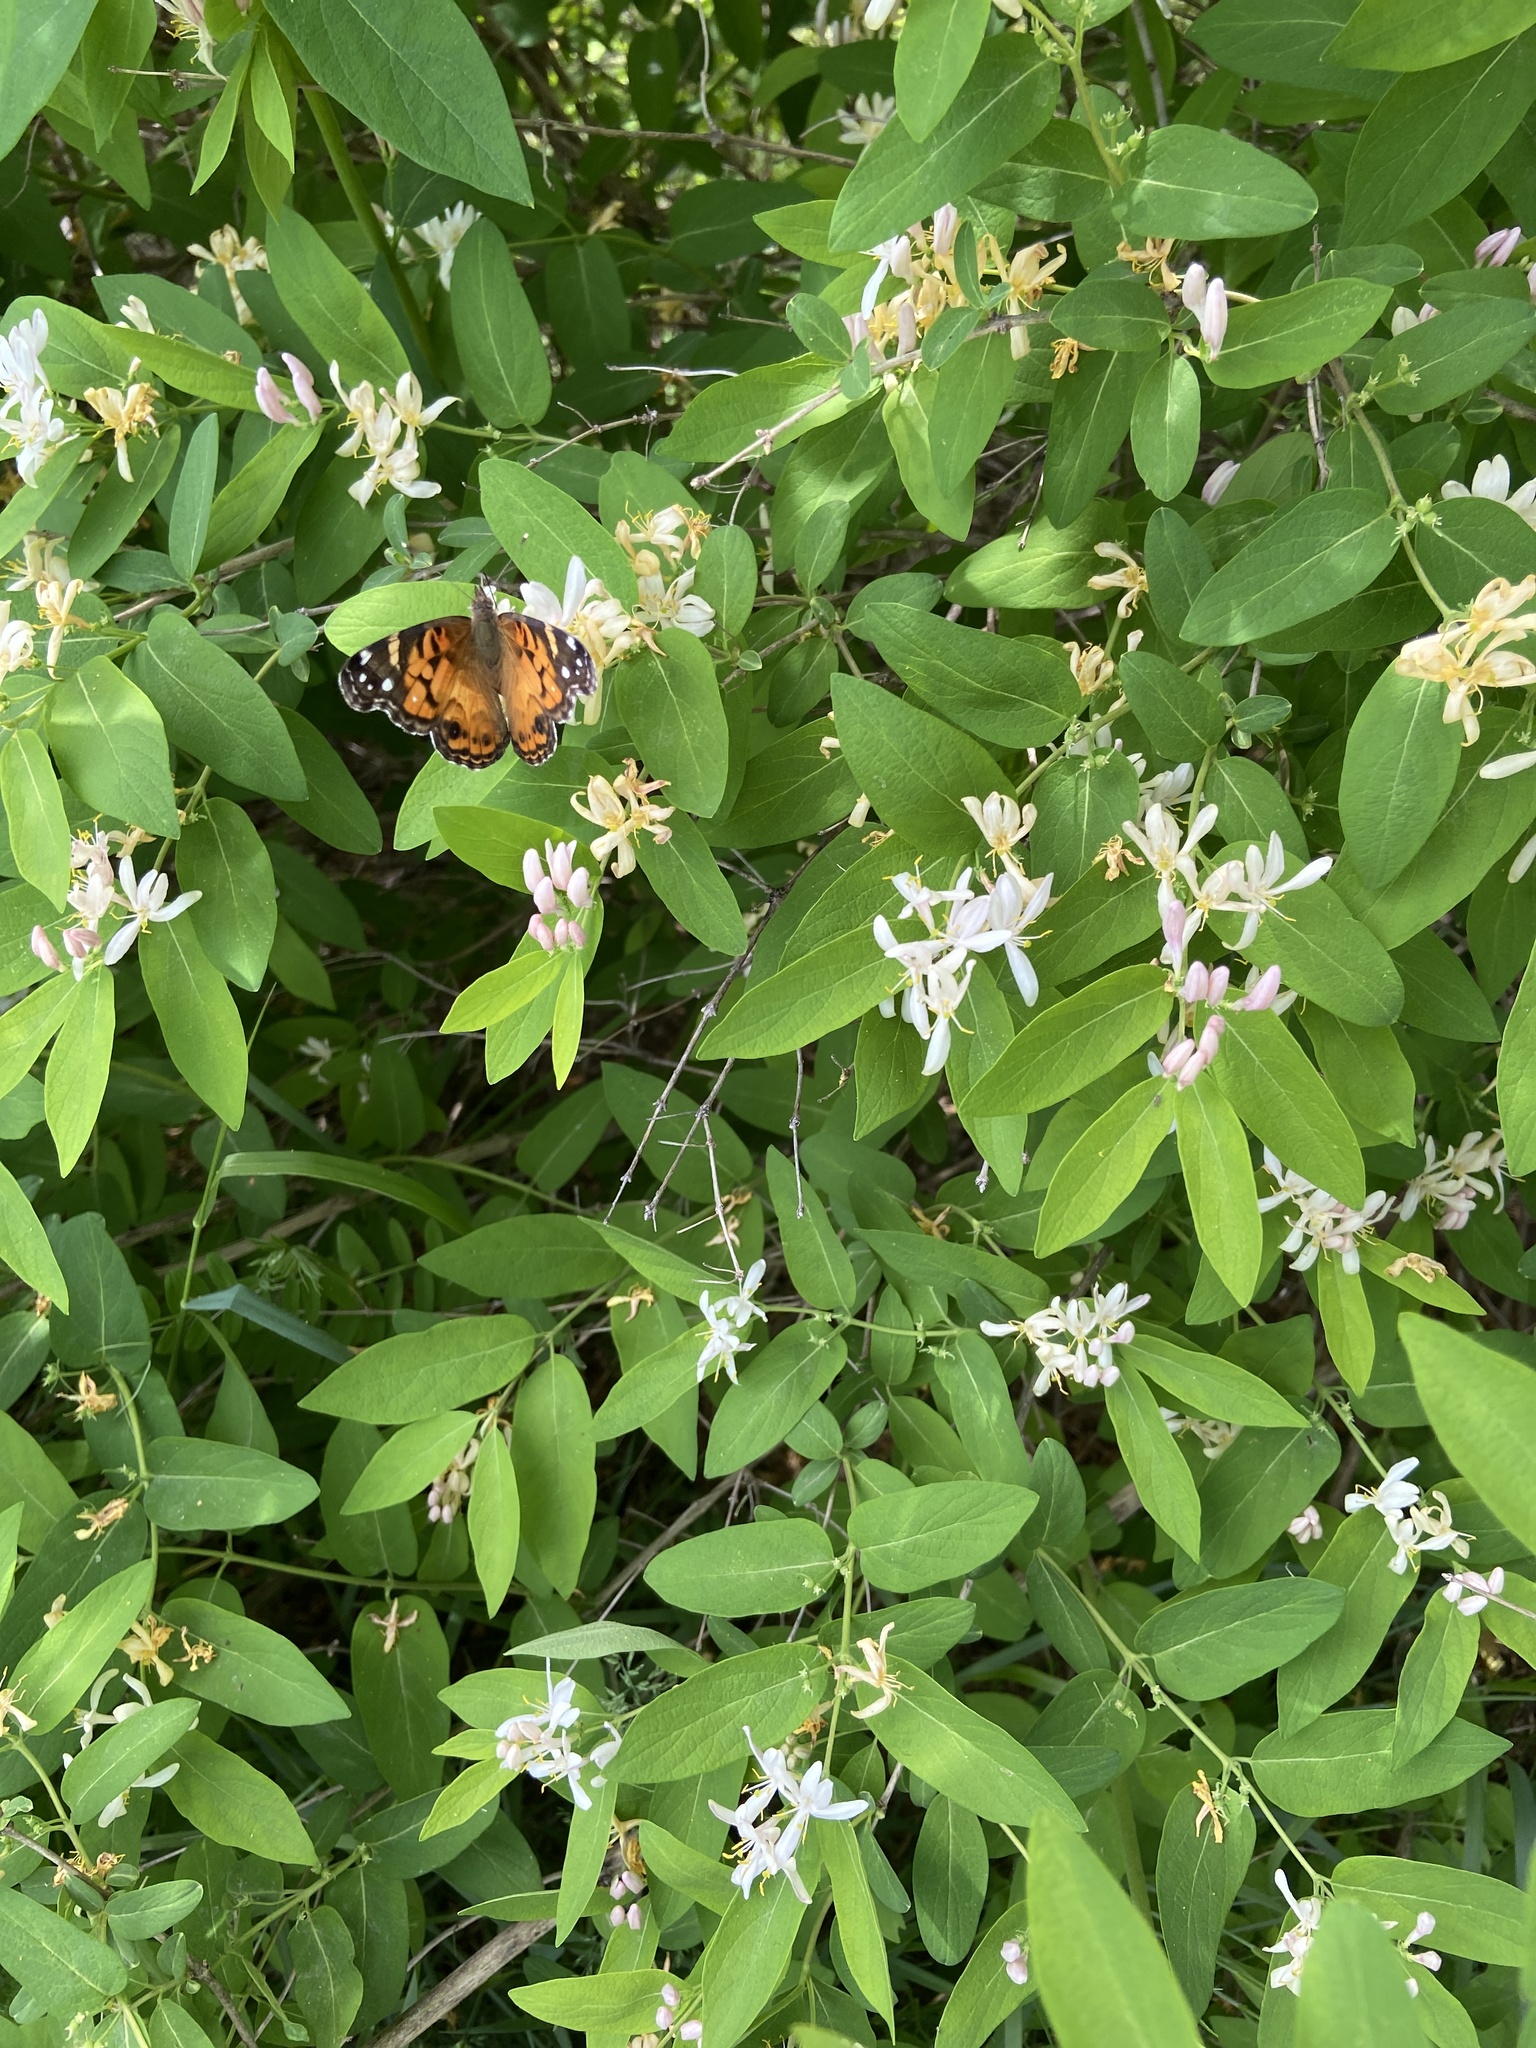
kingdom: Animalia
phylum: Arthropoda
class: Insecta
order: Lepidoptera
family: Nymphalidae
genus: Vanessa
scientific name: Vanessa virginiensis
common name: American lady
